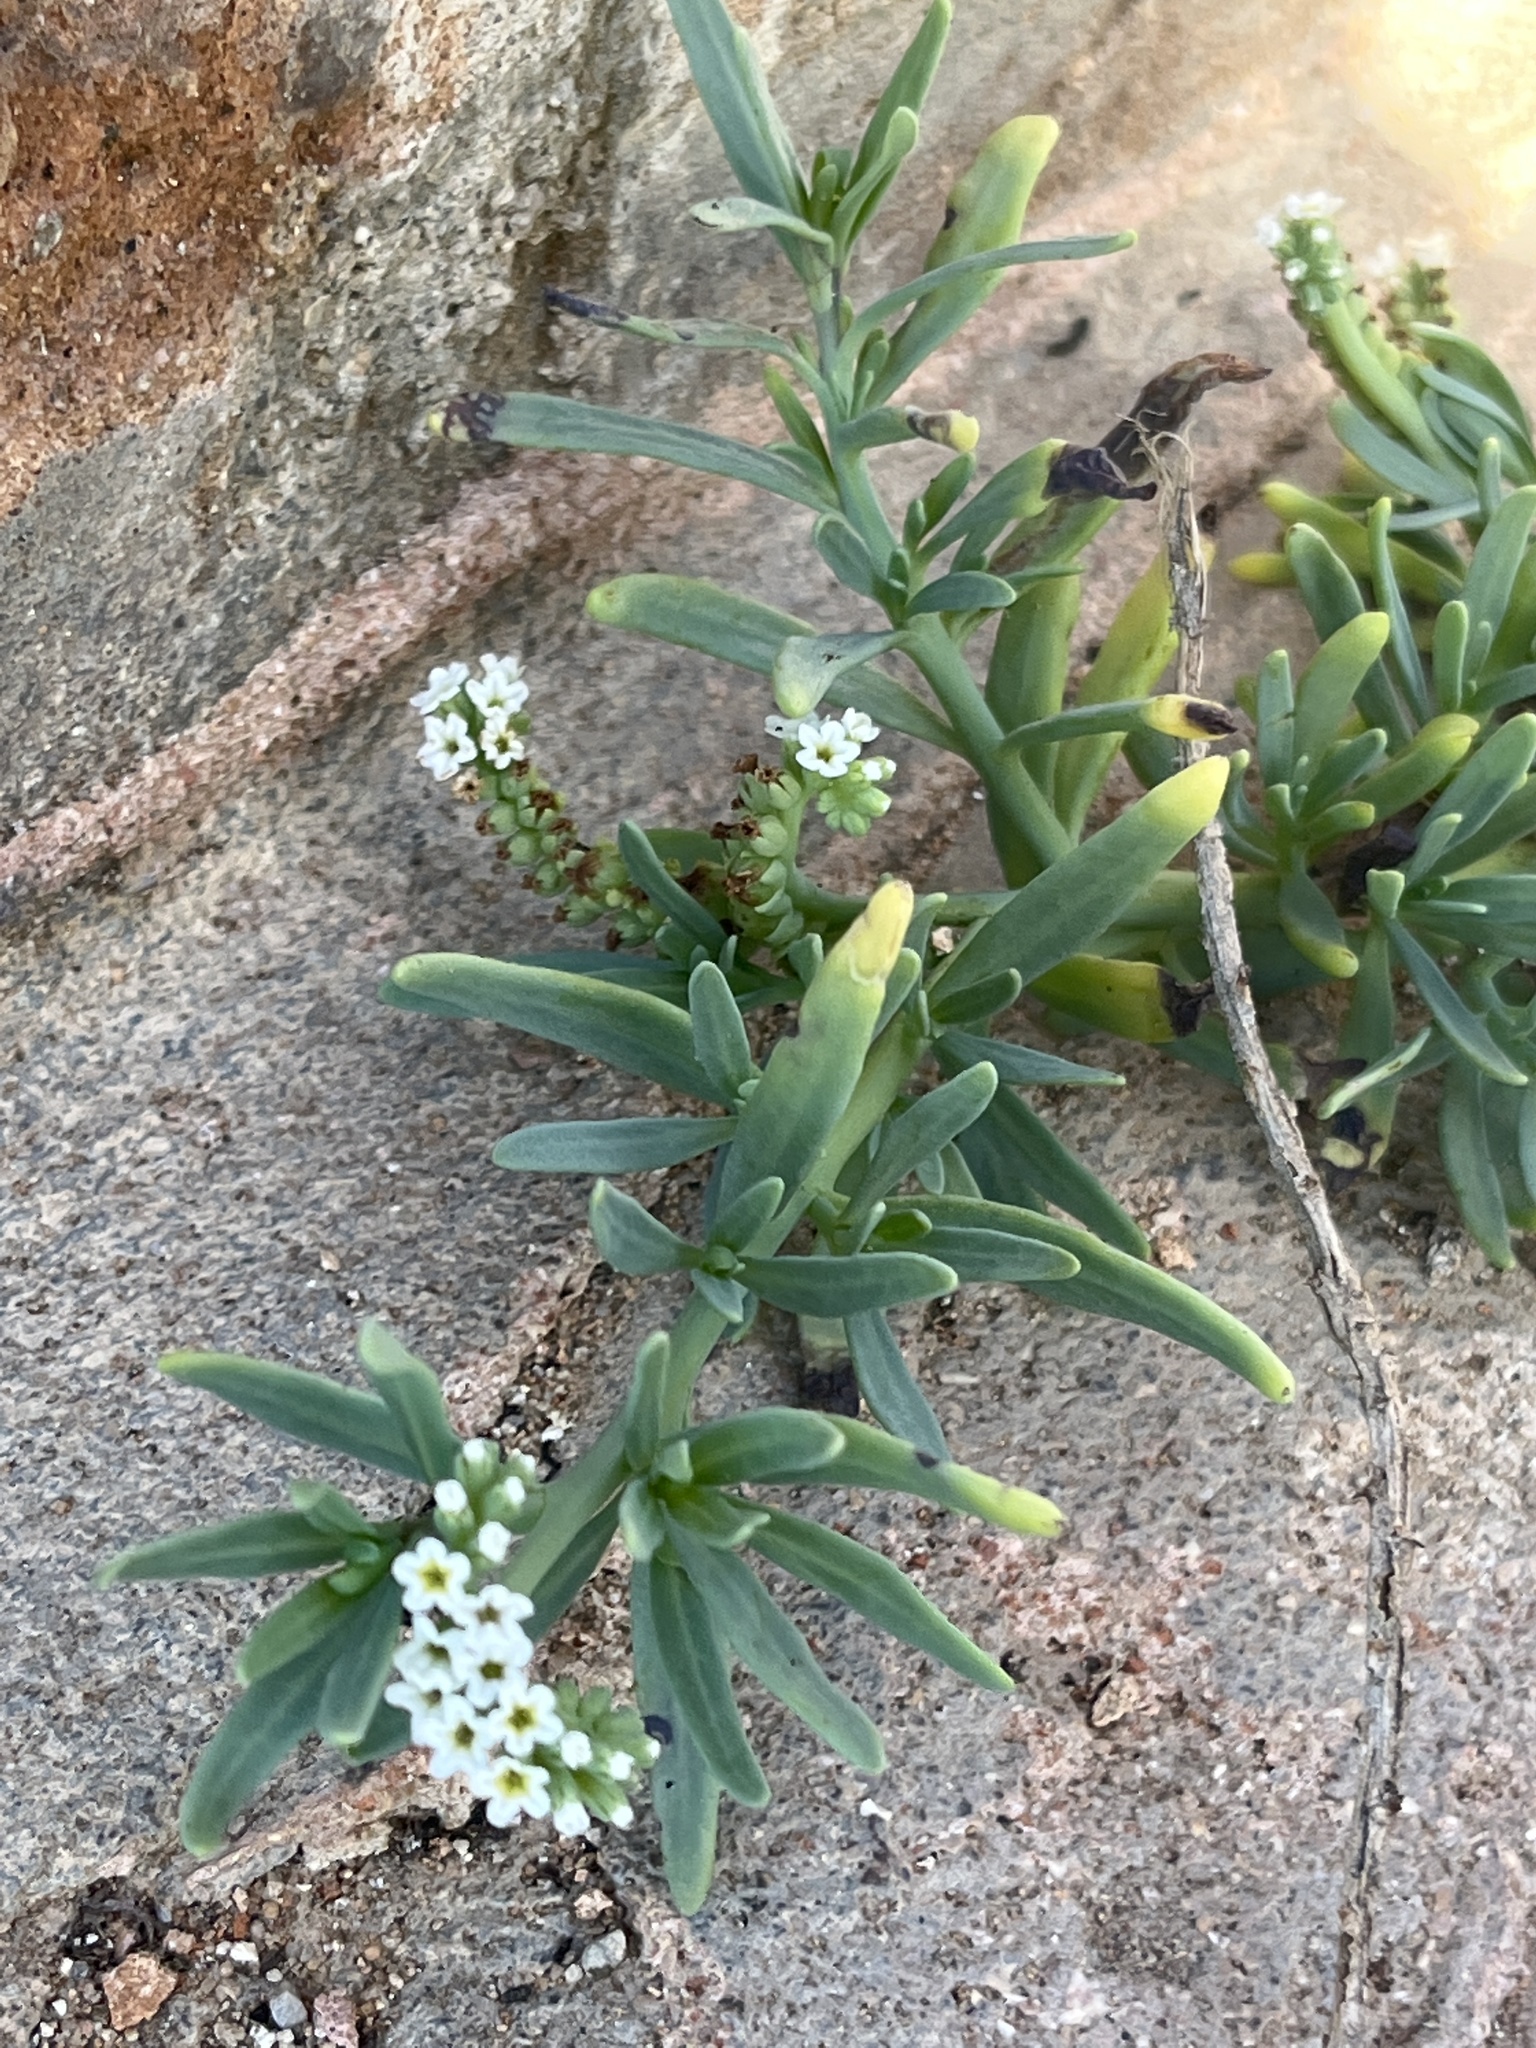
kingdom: Plantae
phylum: Tracheophyta
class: Magnoliopsida
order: Boraginales
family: Heliotropiaceae
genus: Heliotropium
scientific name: Heliotropium curassavicum
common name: Seaside heliotrope
